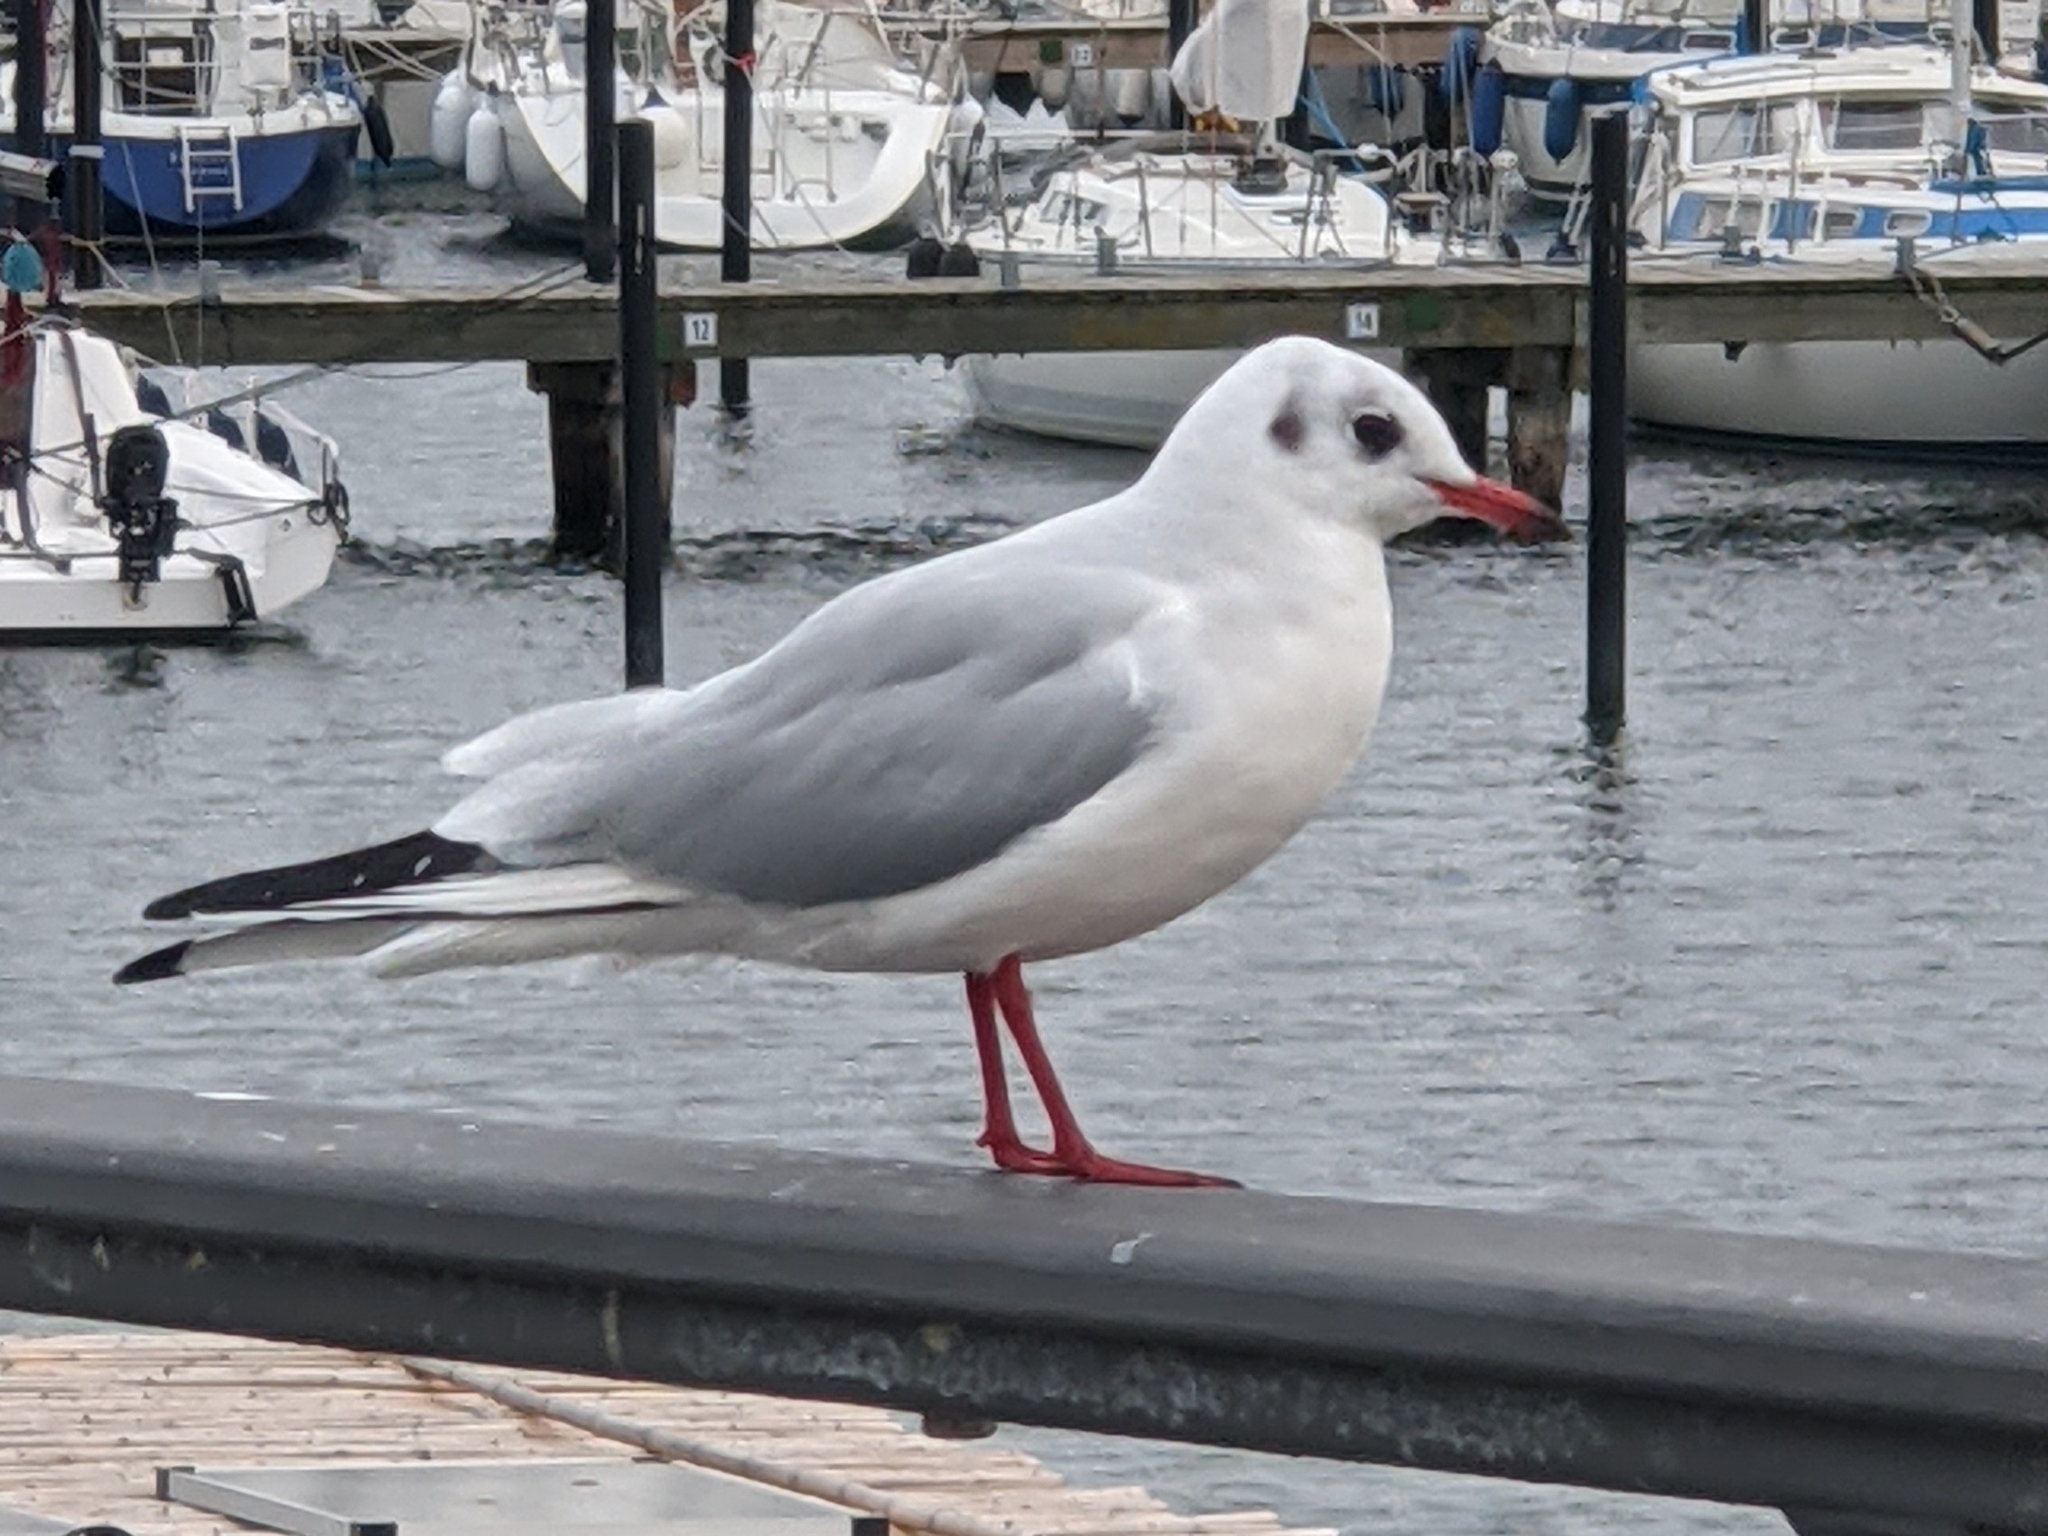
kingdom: Animalia
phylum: Chordata
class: Aves
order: Charadriiformes
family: Laridae
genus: Chroicocephalus
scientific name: Chroicocephalus ridibundus
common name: Black-headed gull
